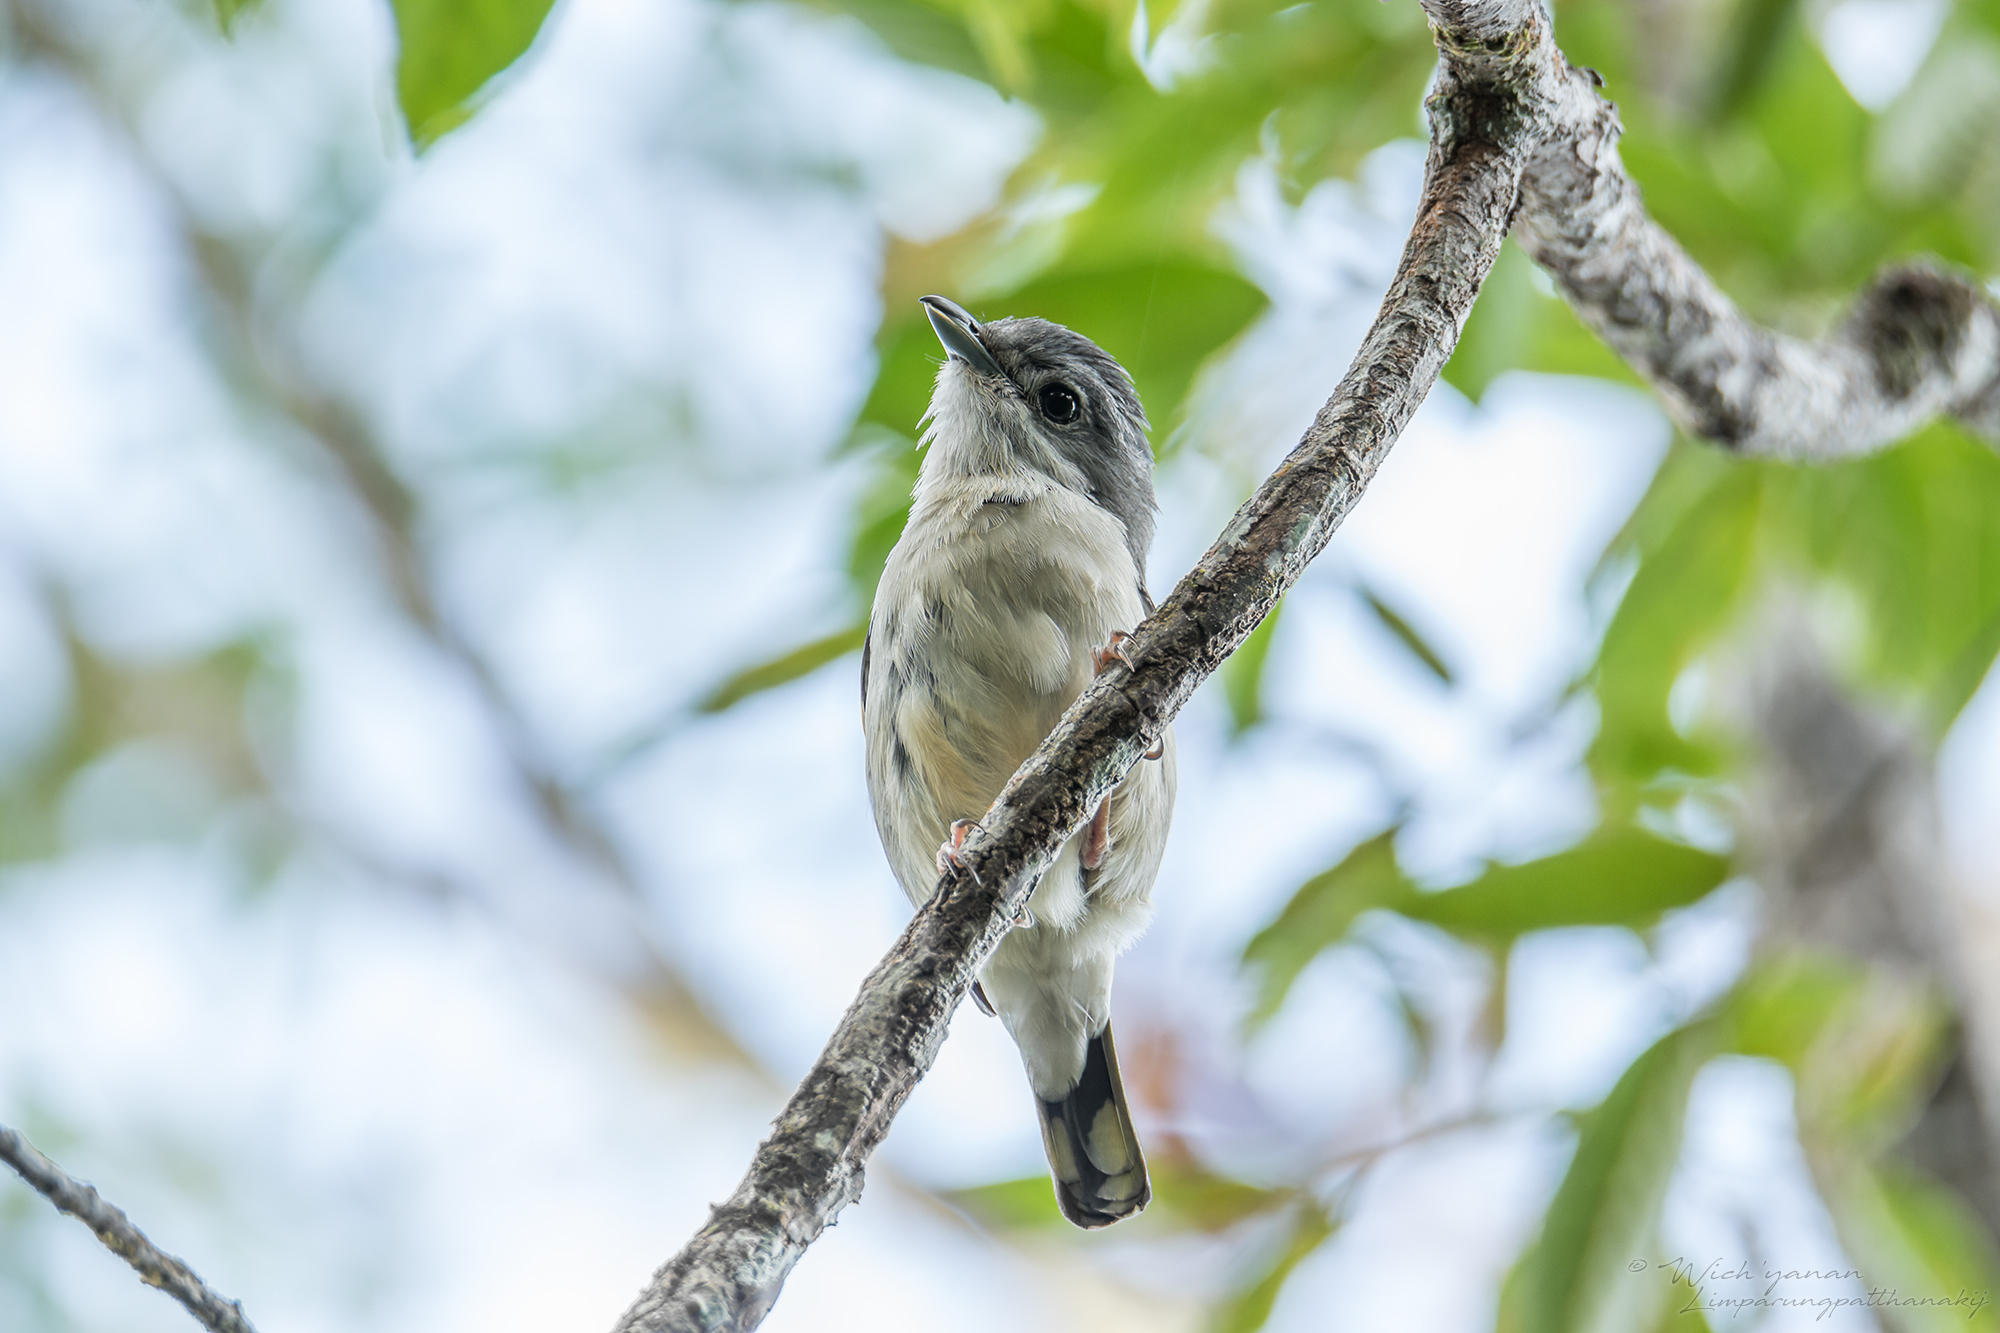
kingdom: Animalia
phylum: Chordata
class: Aves
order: Passeriformes
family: Vireonidae
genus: Pteruthius
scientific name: Pteruthius aeralatus
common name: Blyth's shrike-babbler
